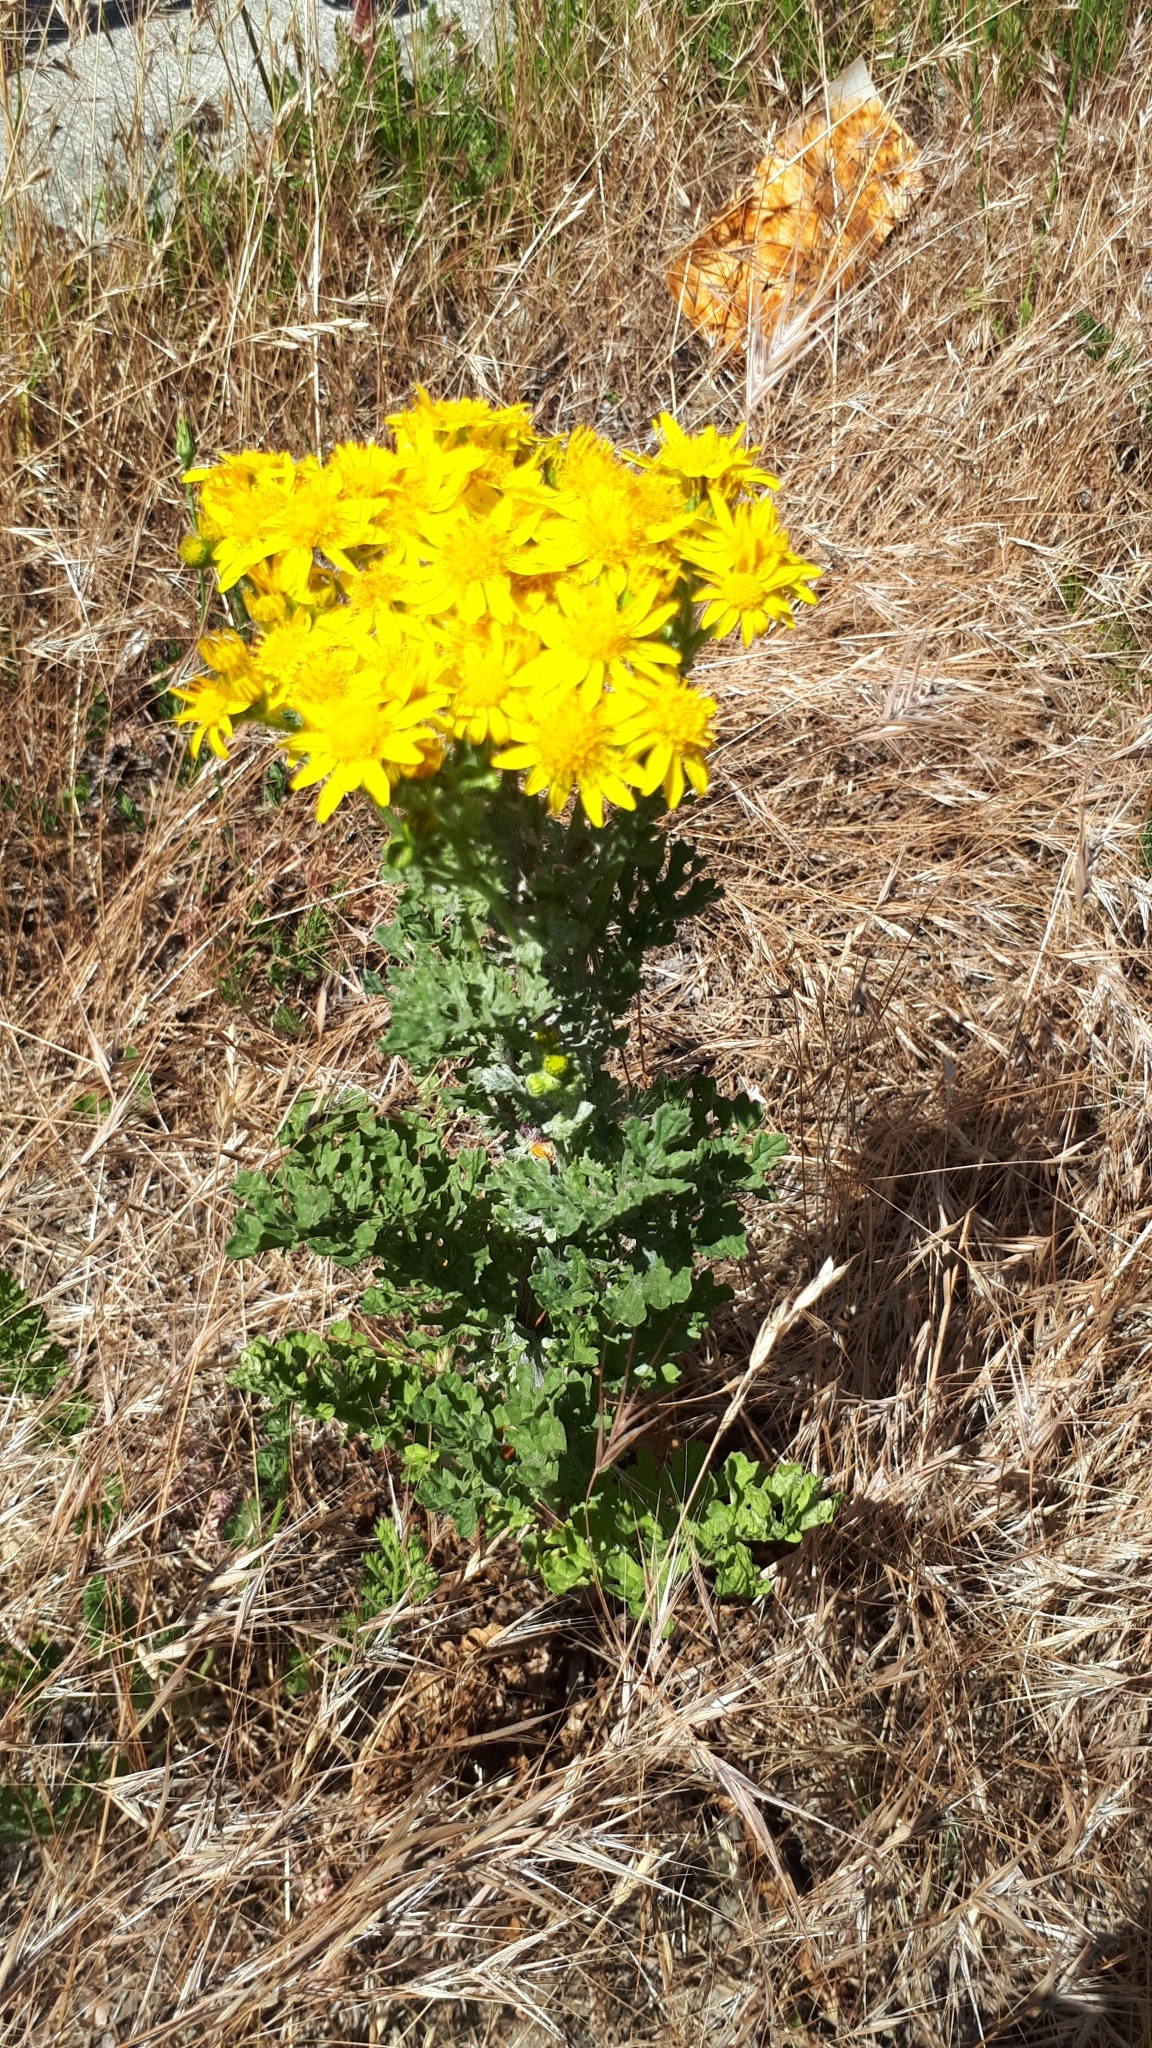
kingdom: Plantae
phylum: Tracheophyta
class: Magnoliopsida
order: Asterales
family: Asteraceae
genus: Jacobaea
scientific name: Jacobaea vulgaris
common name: Stinking willie
